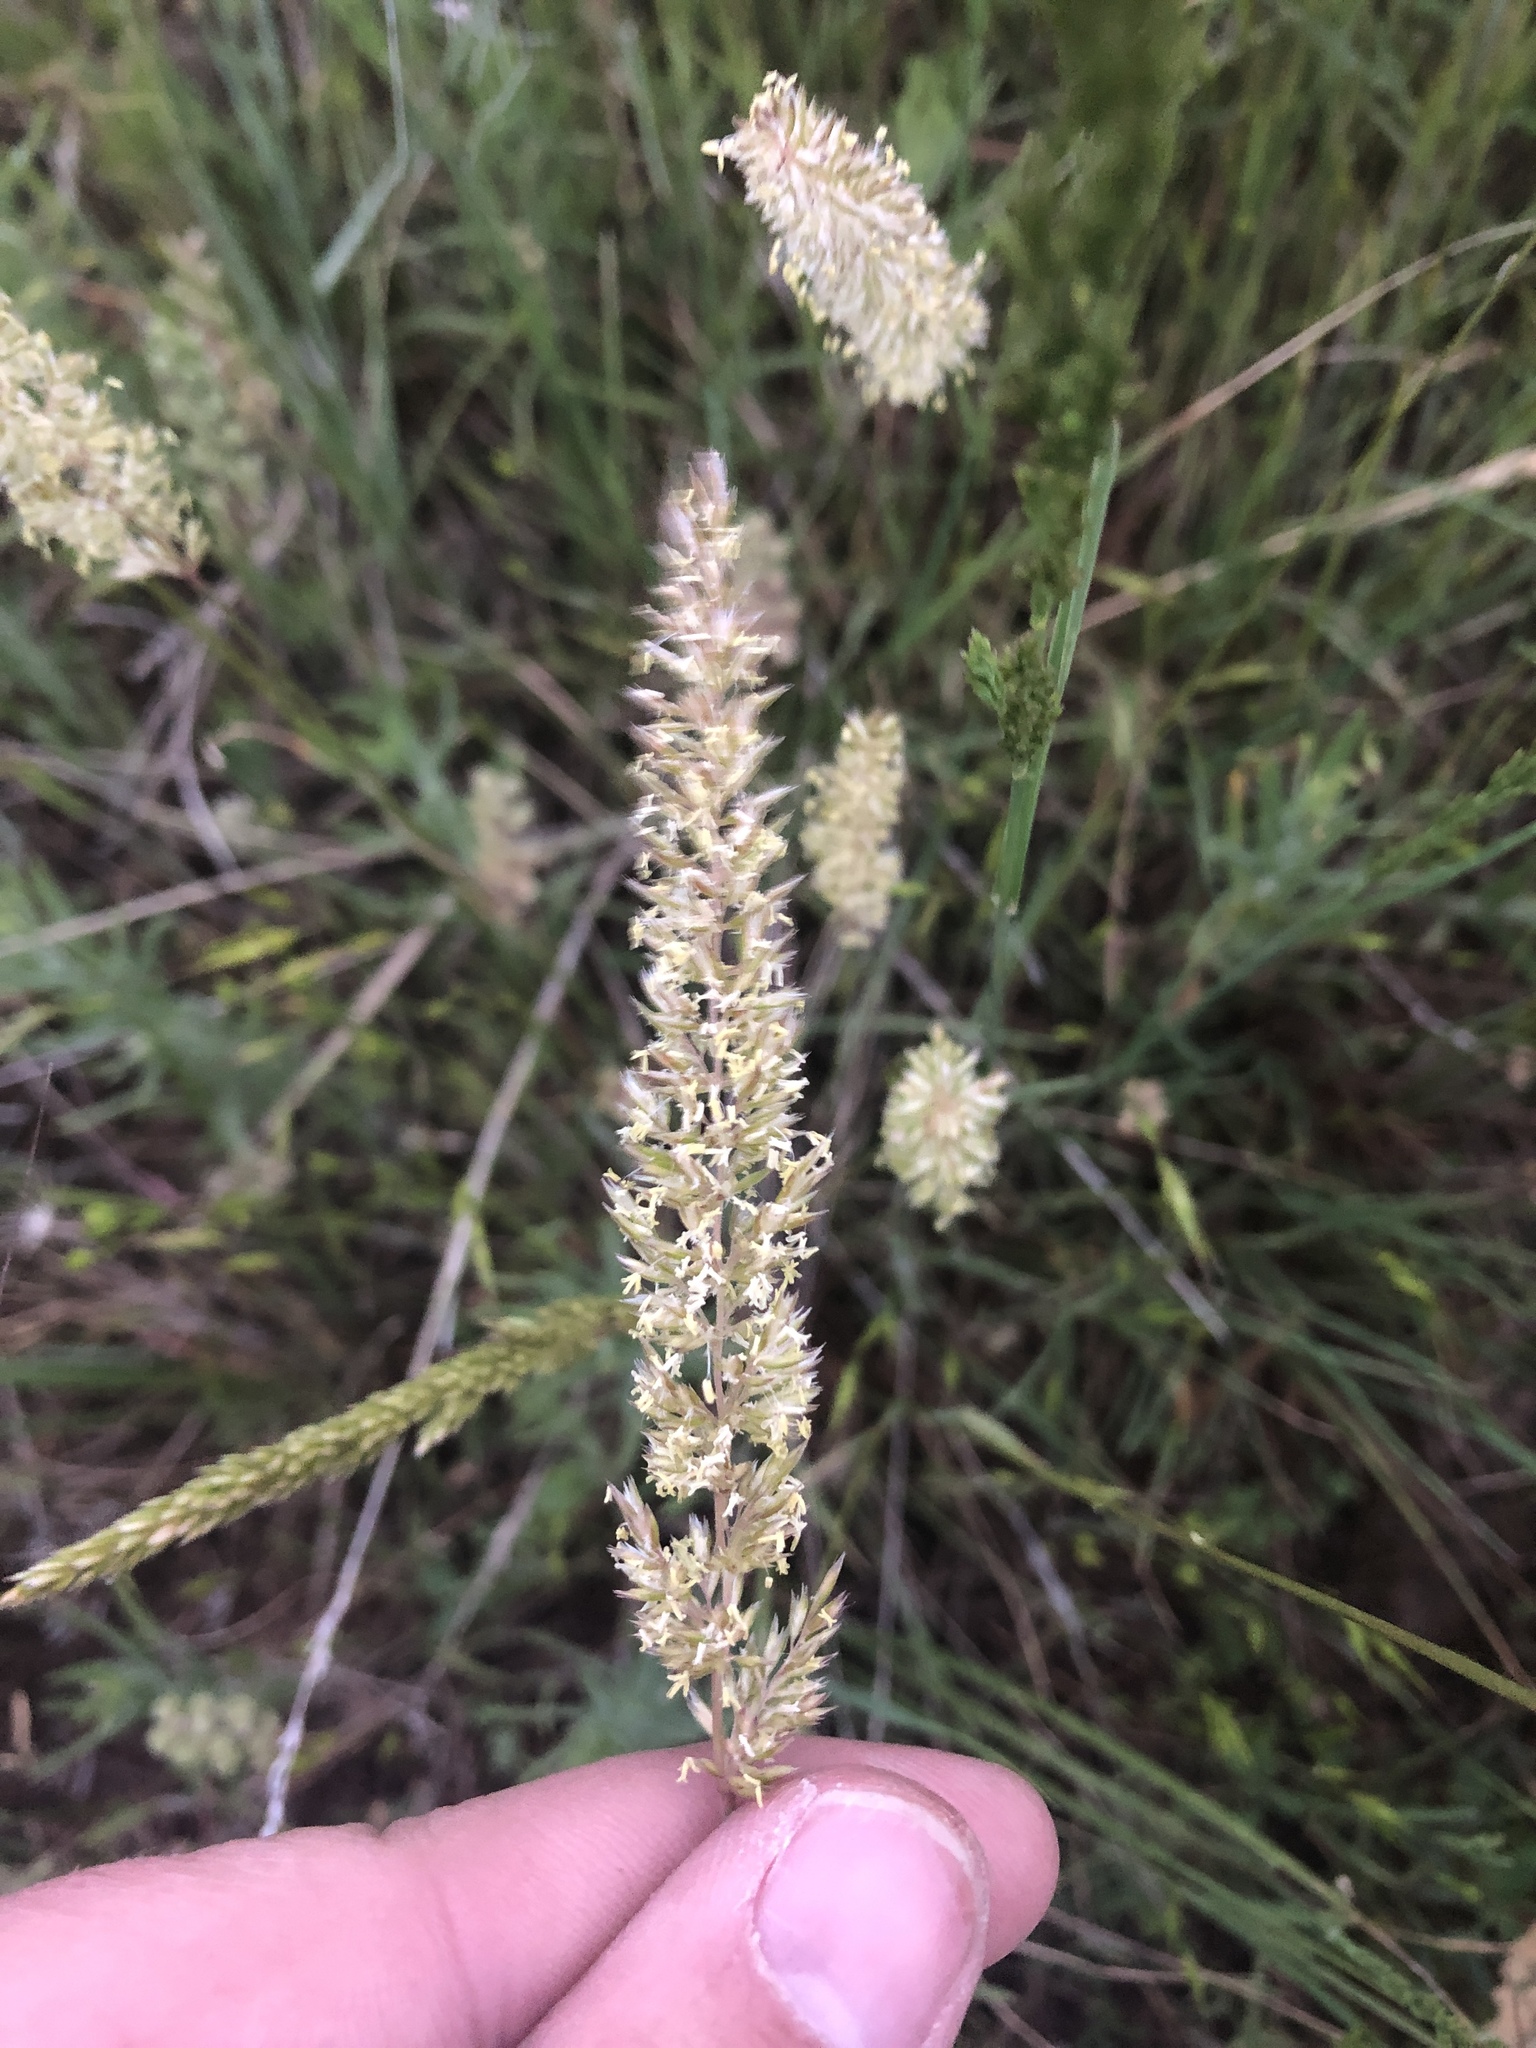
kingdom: Plantae
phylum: Tracheophyta
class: Liliopsida
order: Poales
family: Poaceae
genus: Koeleria
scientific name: Koeleria macrantha
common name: Crested hair-grass
